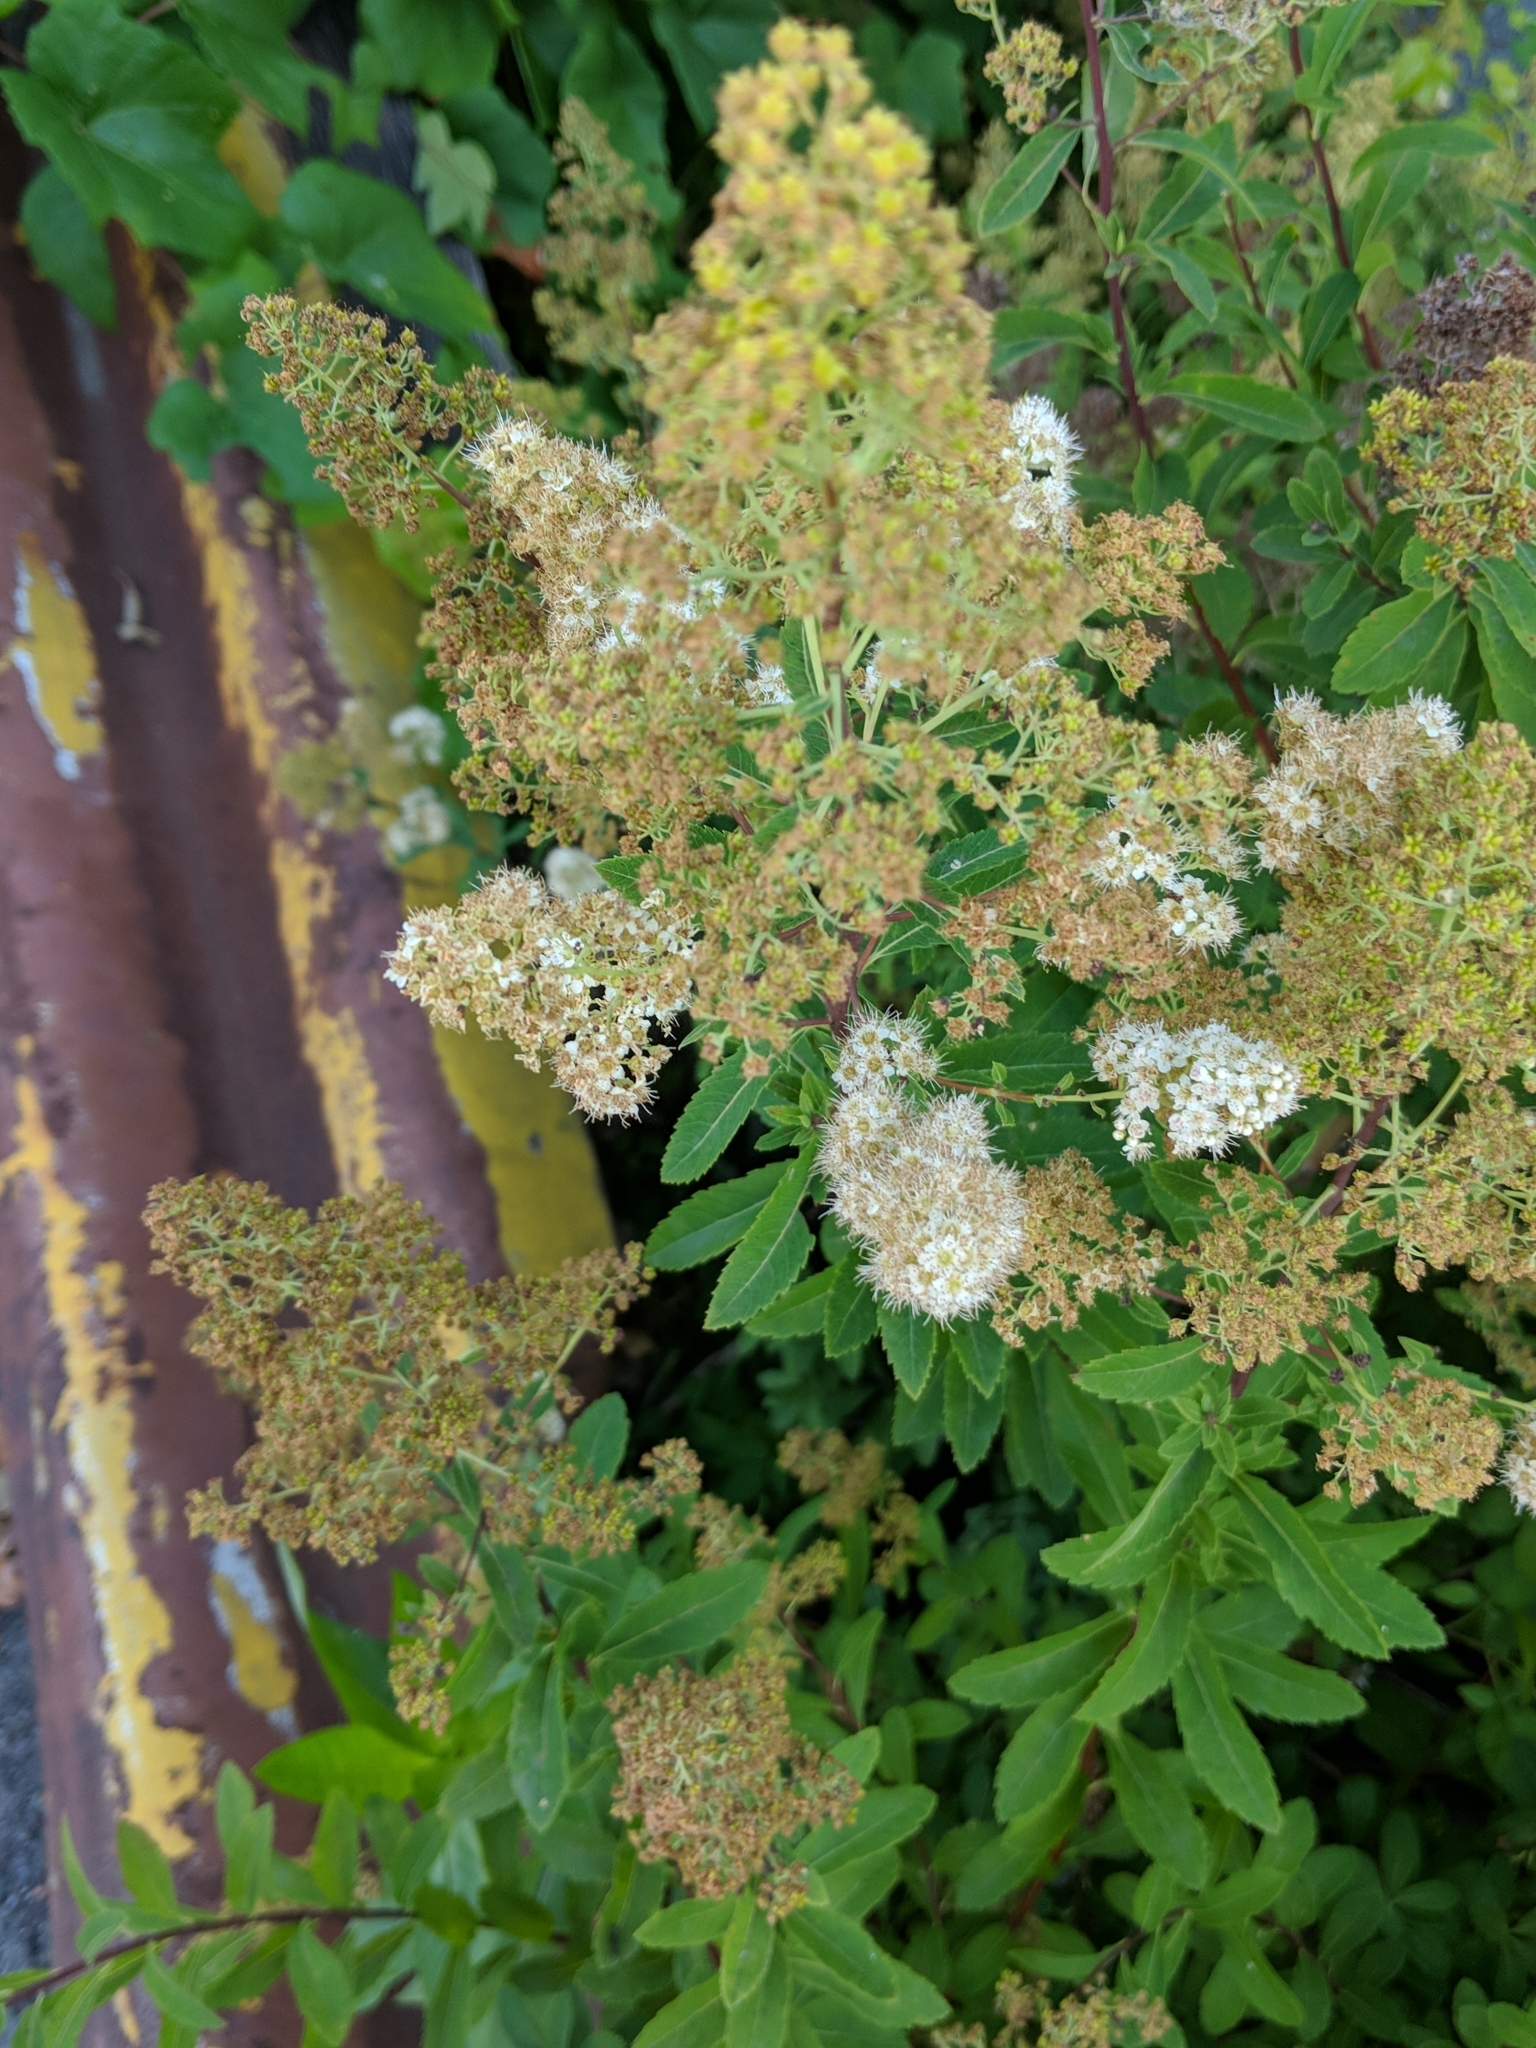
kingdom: Plantae
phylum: Tracheophyta
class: Magnoliopsida
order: Rosales
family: Rosaceae
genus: Spiraea
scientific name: Spiraea alba
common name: Pale bridewort
